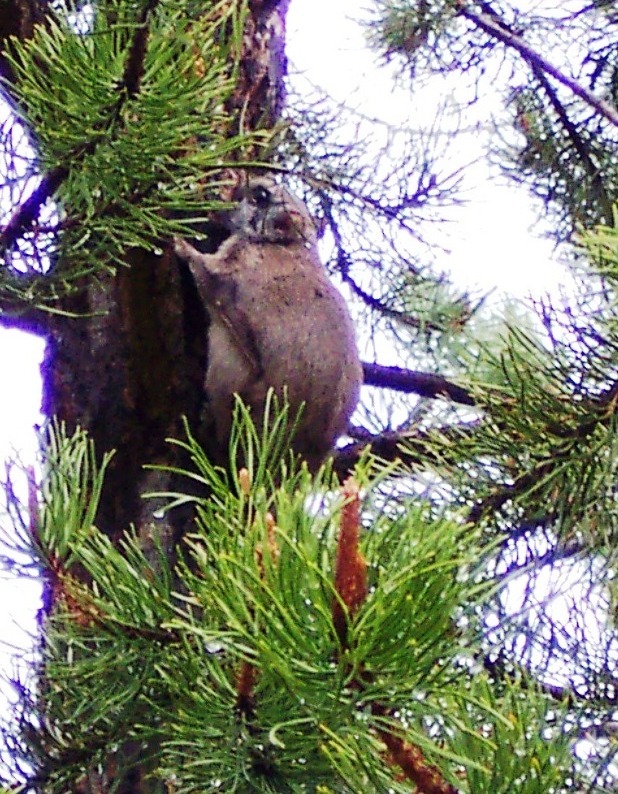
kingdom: Animalia
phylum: Chordata
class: Mammalia
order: Rodentia
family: Sciuridae
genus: Glaucomys
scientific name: Glaucomys sabrinus
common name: Northern flying squirrel
